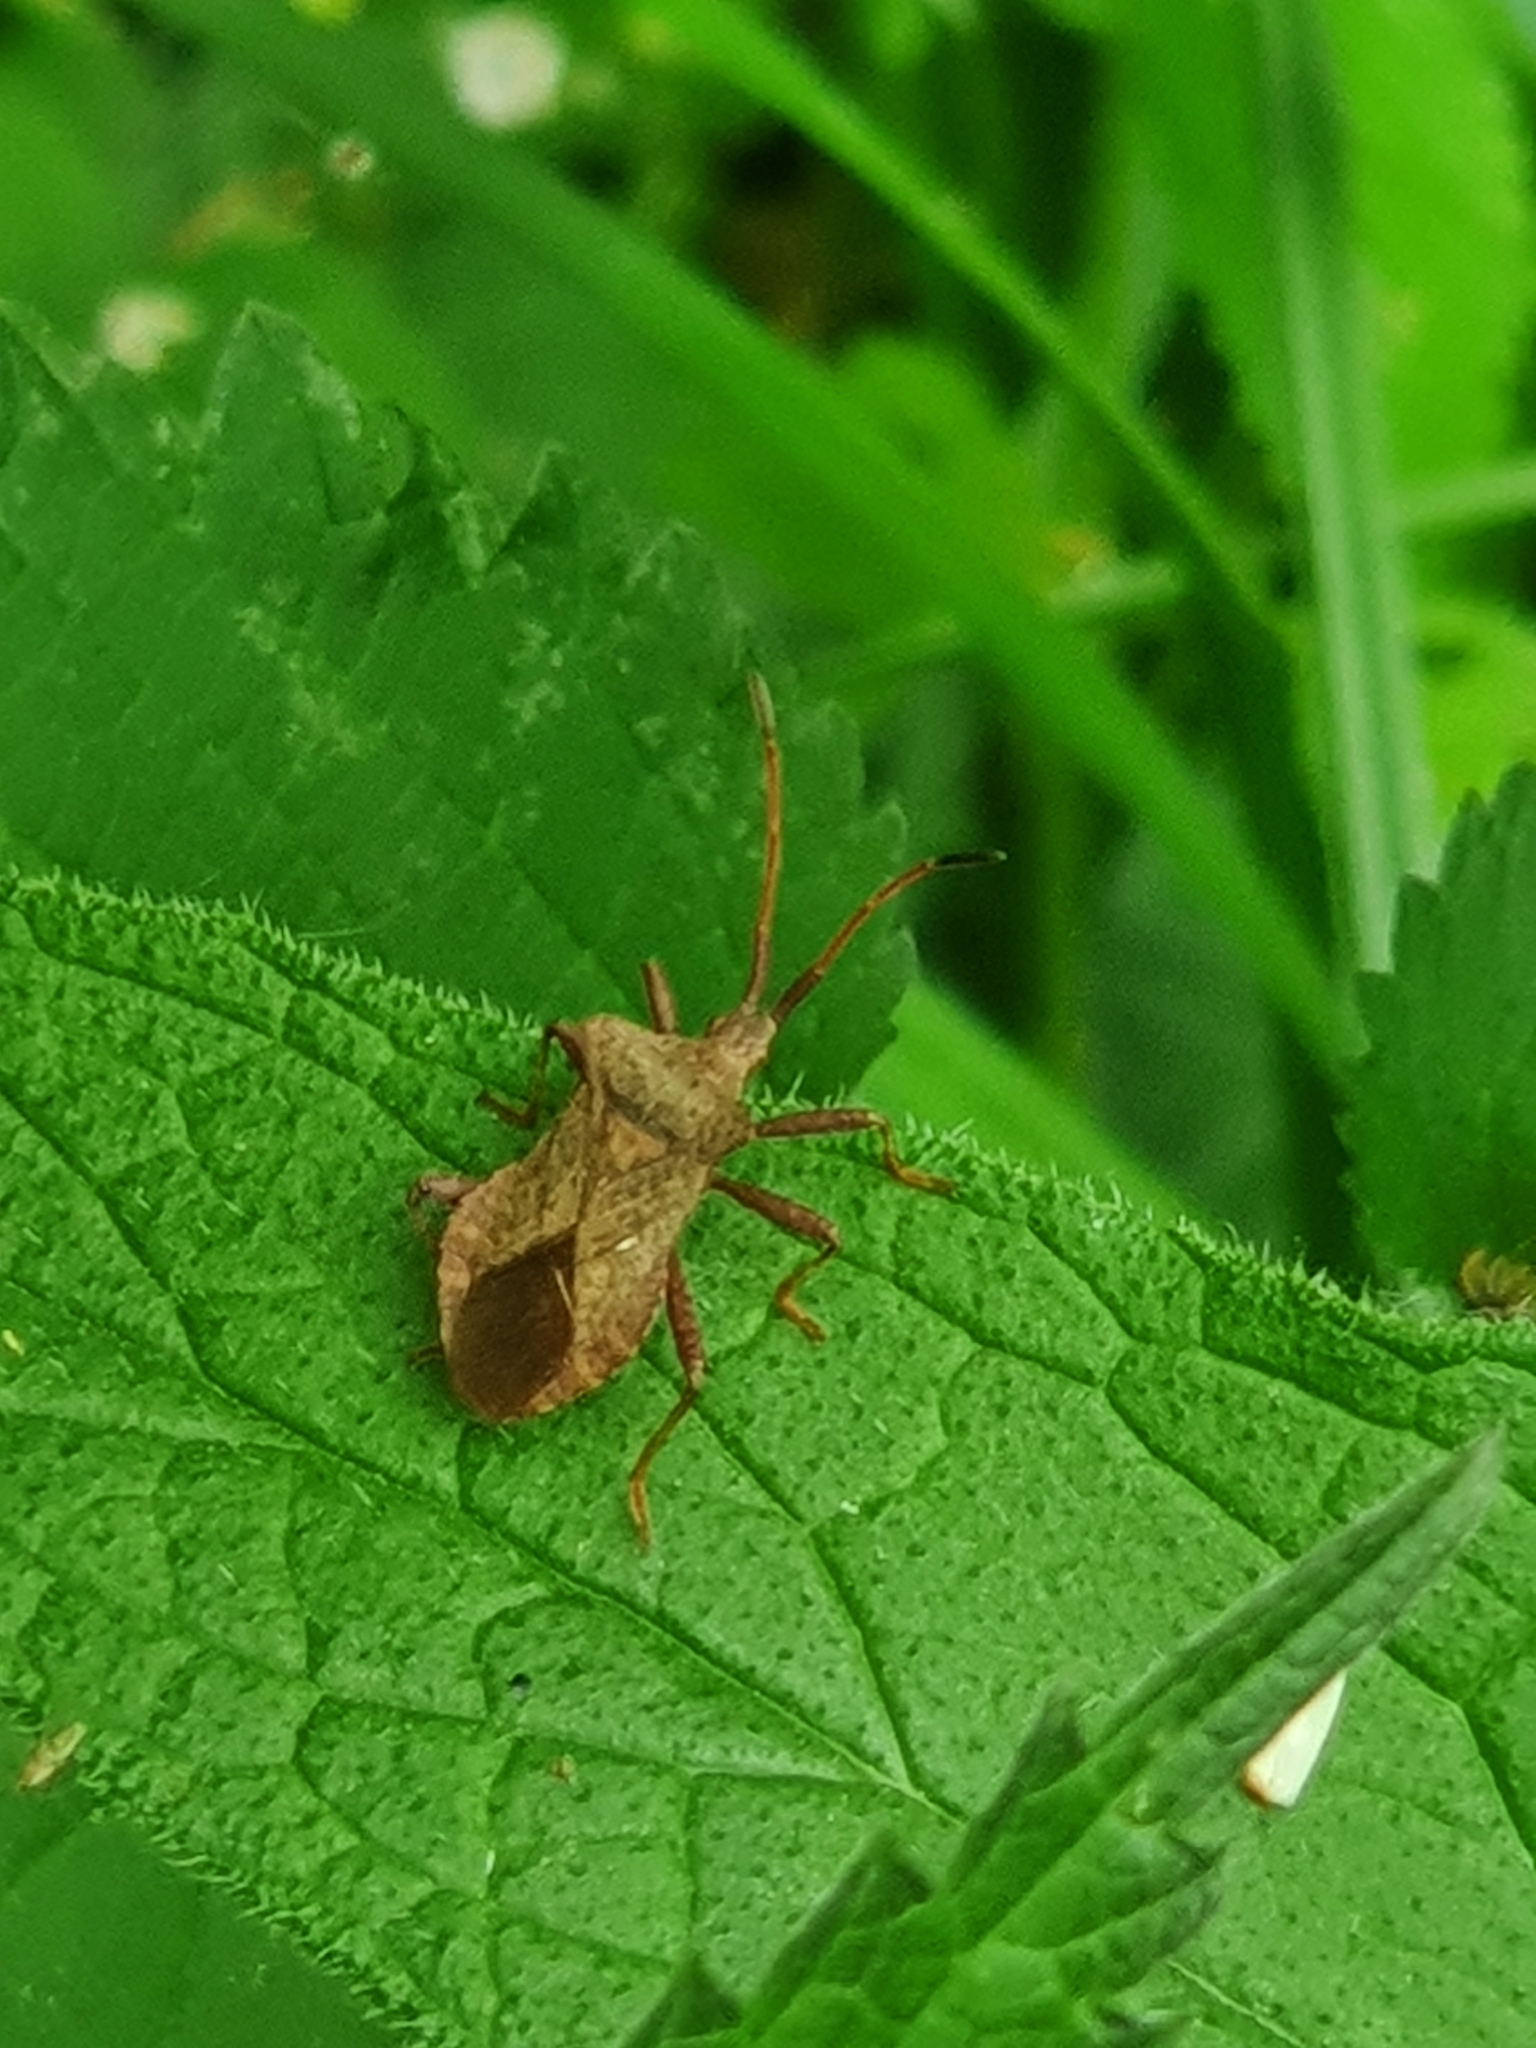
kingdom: Animalia
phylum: Arthropoda
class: Insecta
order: Hemiptera
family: Coreidae
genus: Coreus
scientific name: Coreus marginatus
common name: Dock bug
